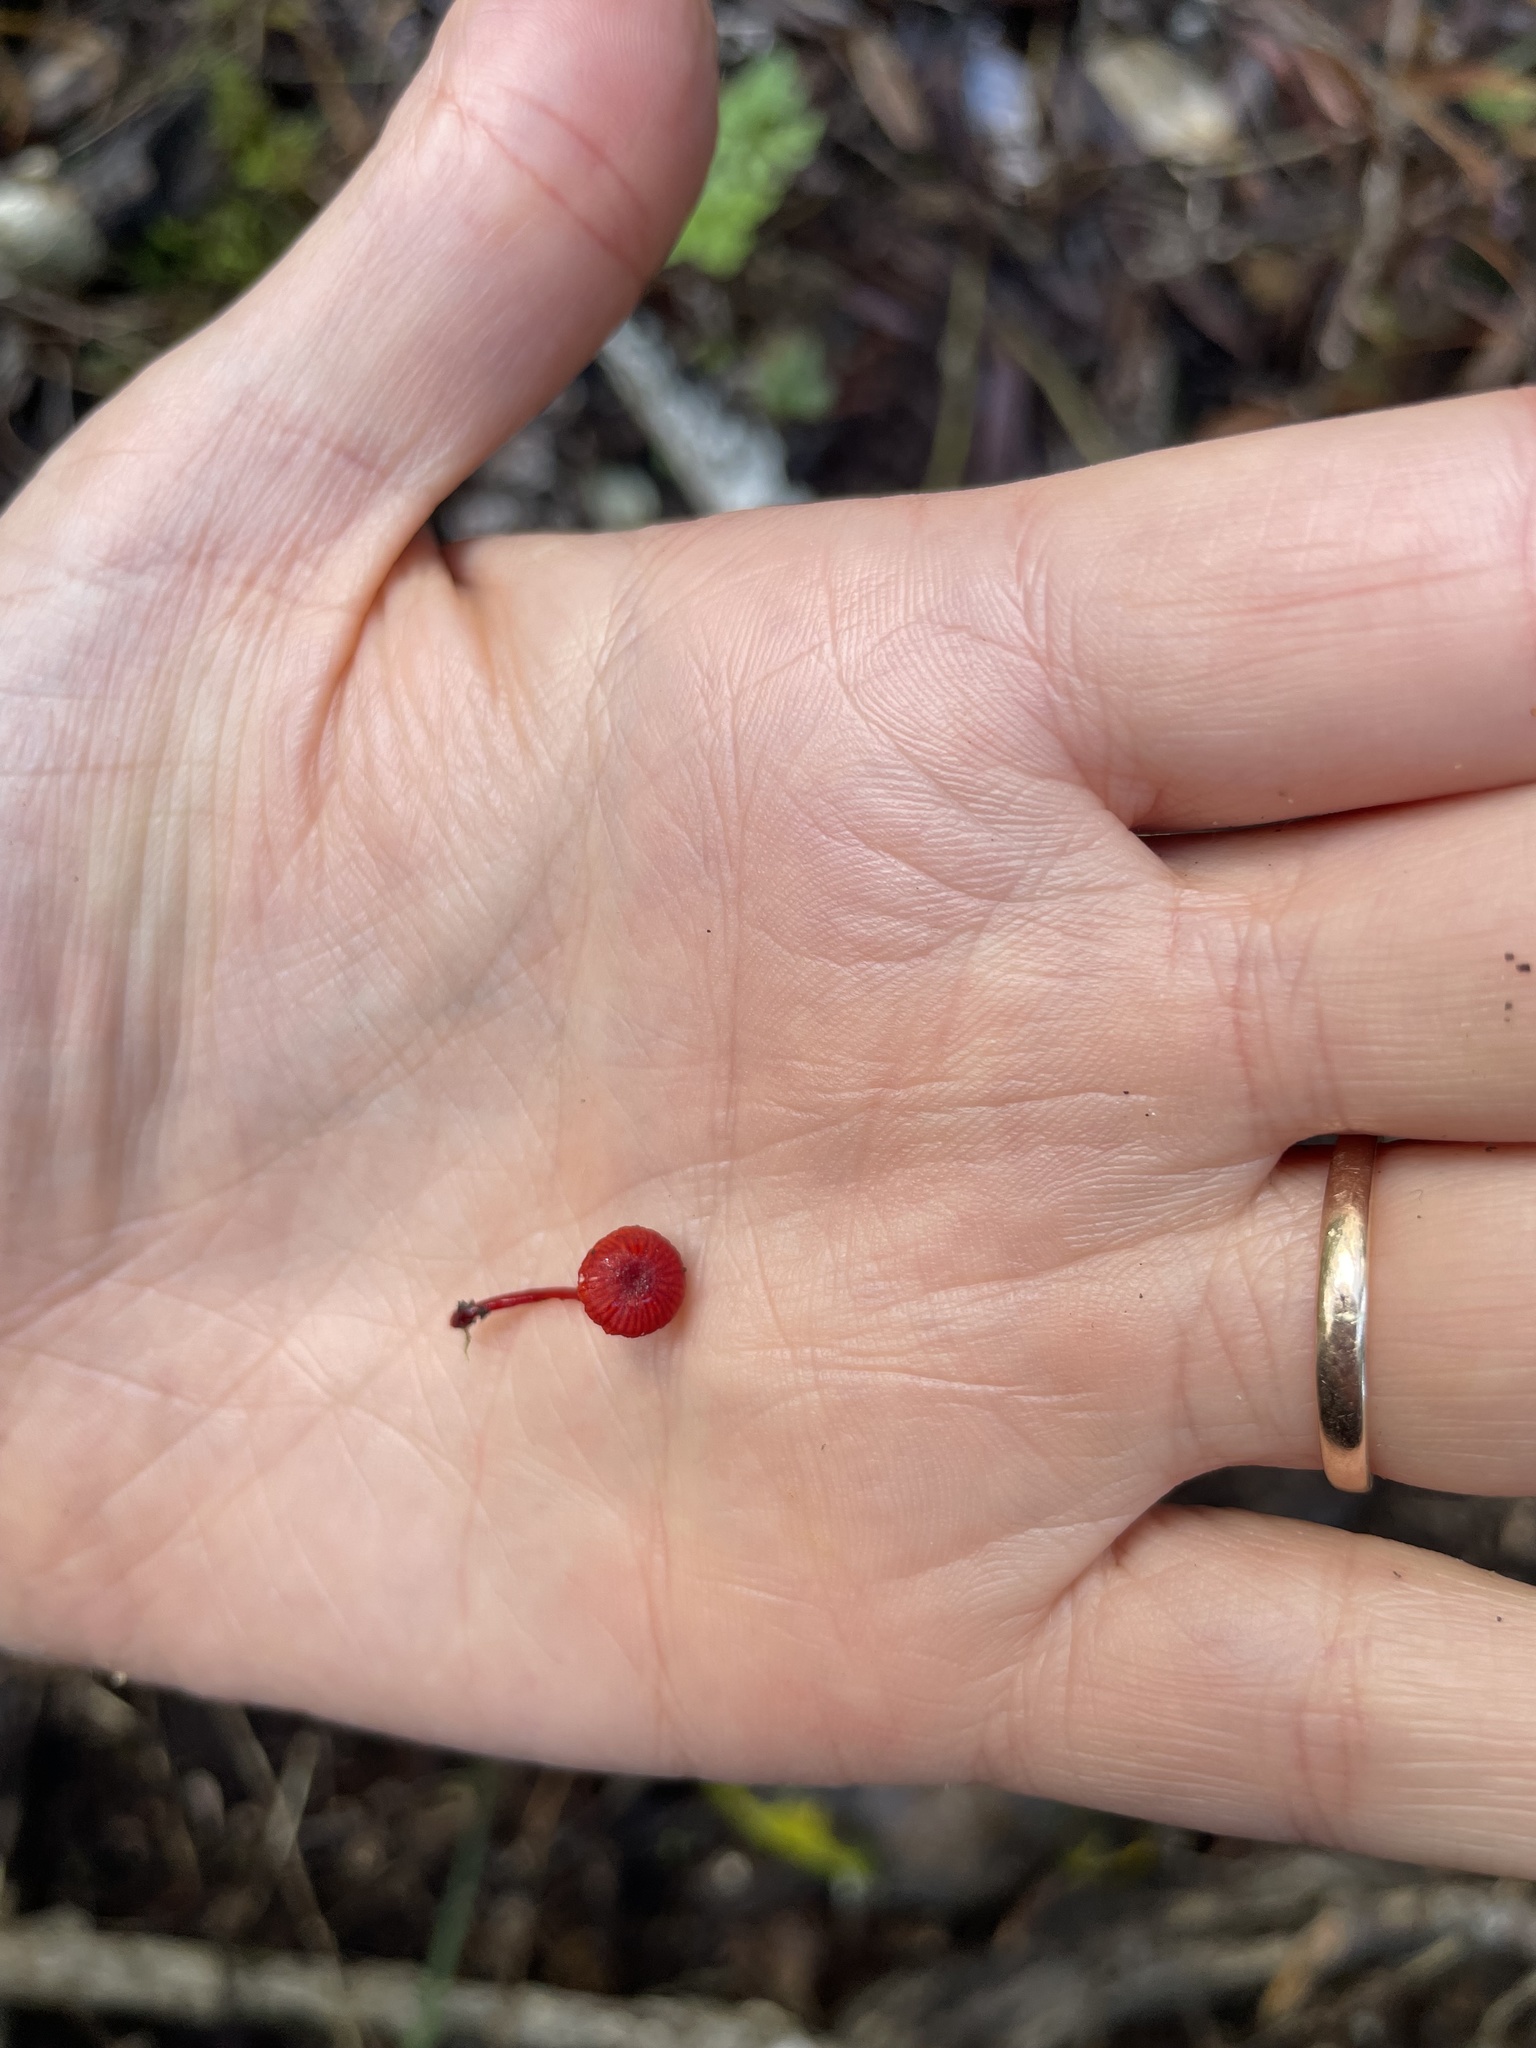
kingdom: Fungi
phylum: Basidiomycota
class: Agaricomycetes
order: Agaricales
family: Mycenaceae
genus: Cruentomycena
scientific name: Cruentomycena viscidocruenta
